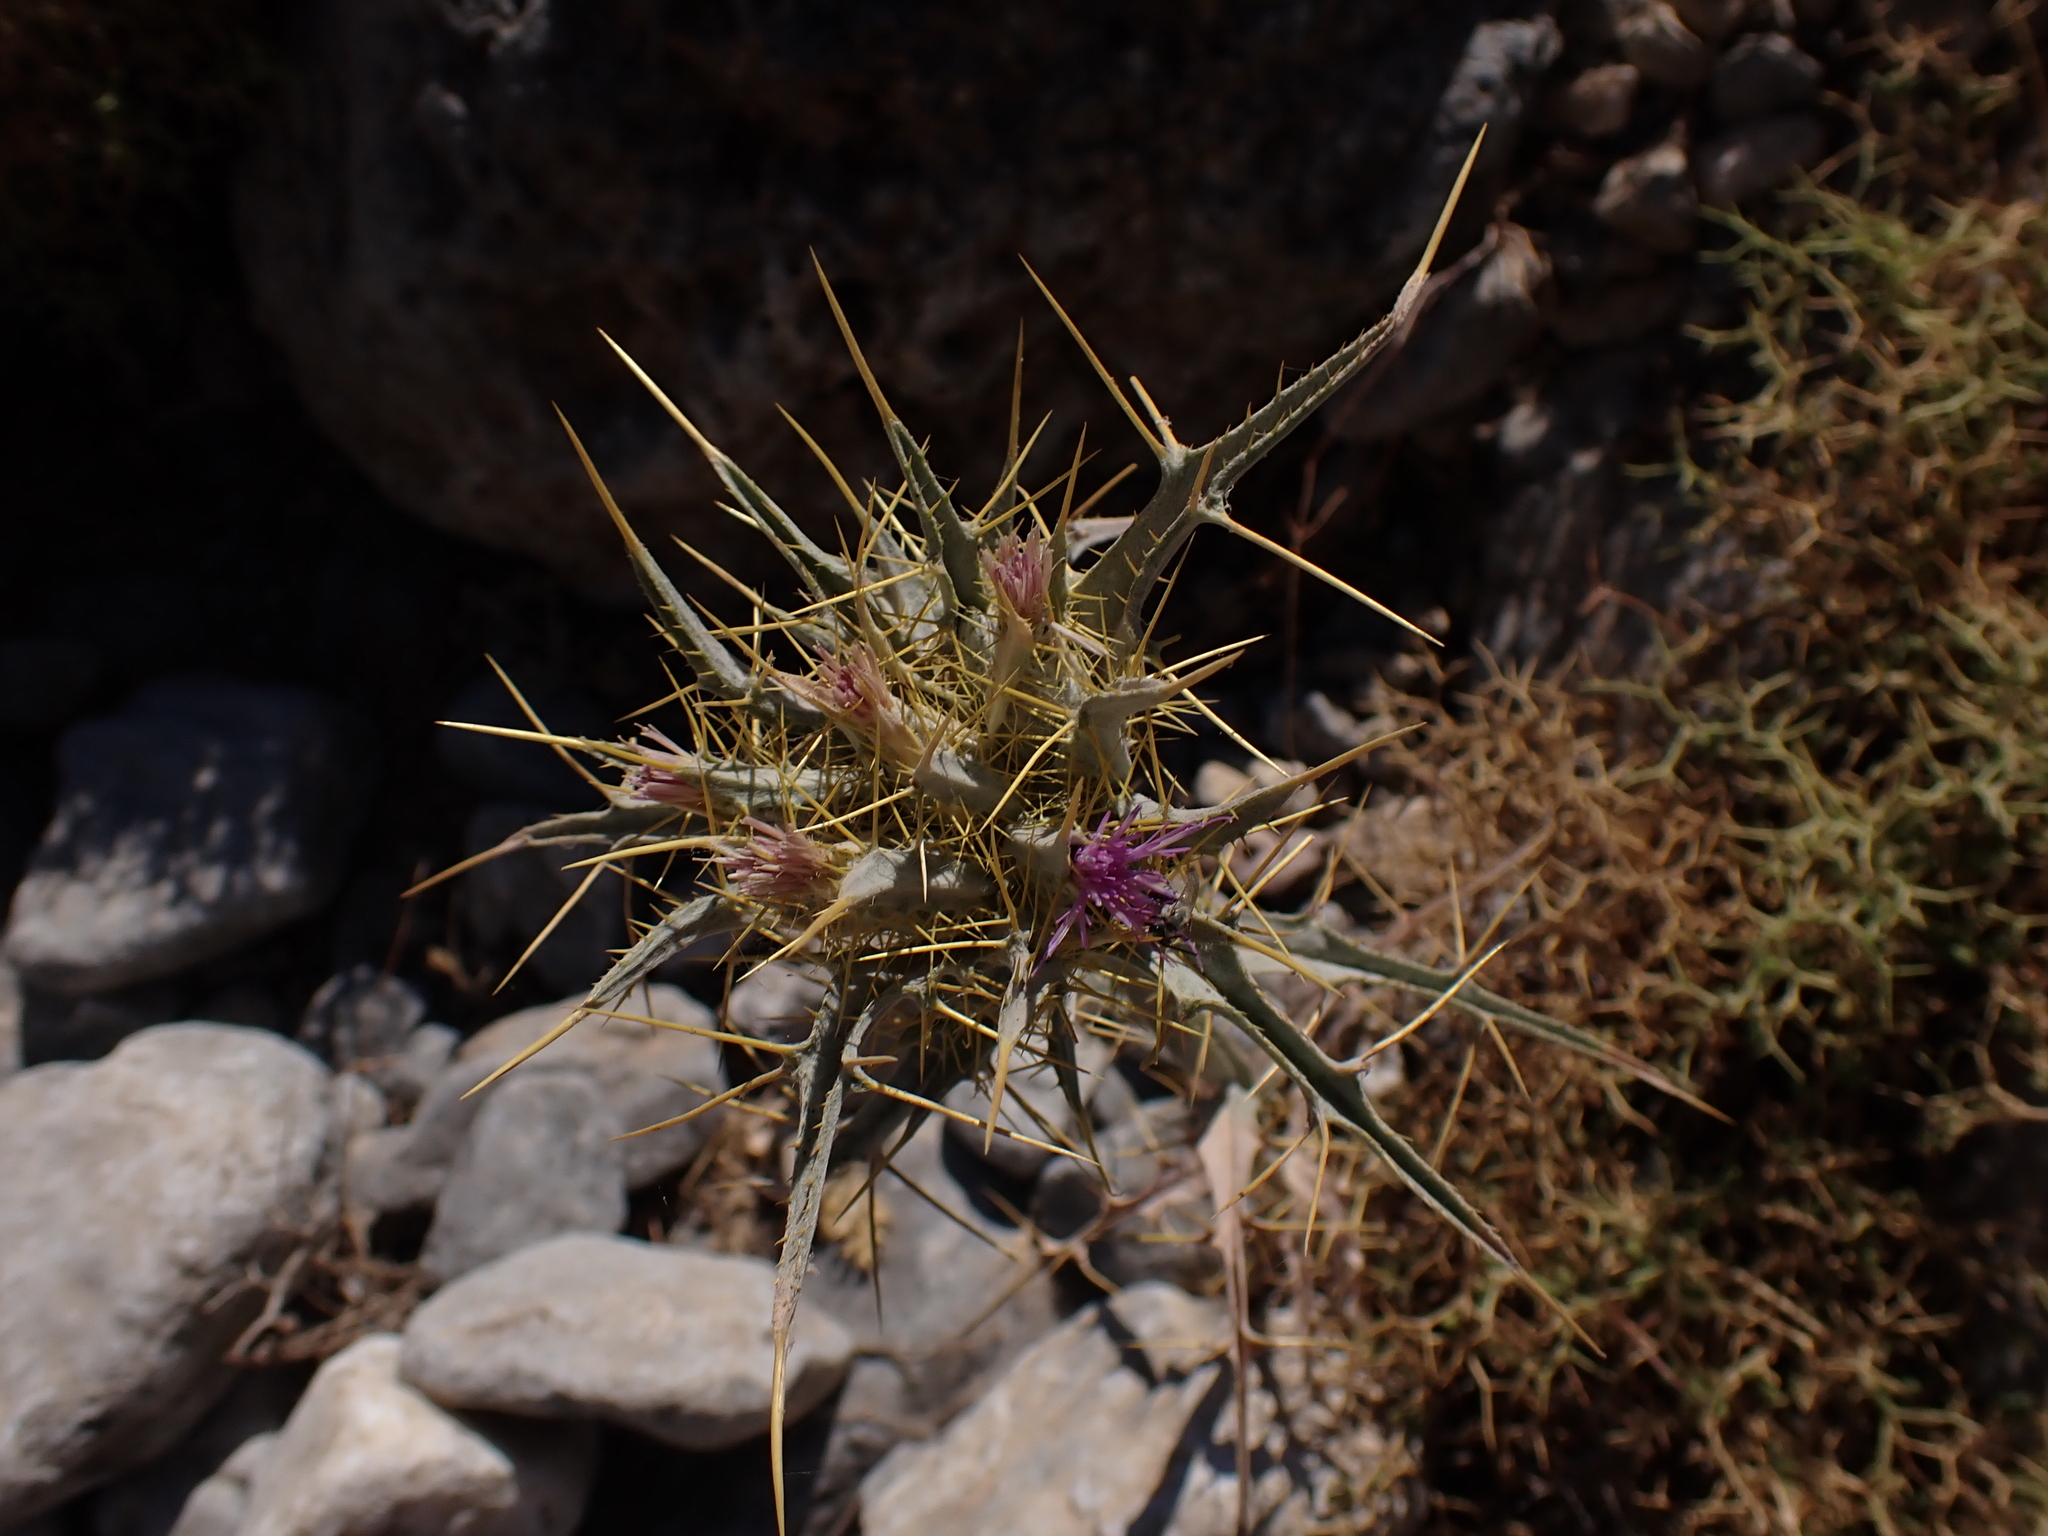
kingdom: Plantae
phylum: Tracheophyta
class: Magnoliopsida
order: Asterales
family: Asteraceae
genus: Picnomon
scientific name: Picnomon acarna
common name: Soldier thistle
